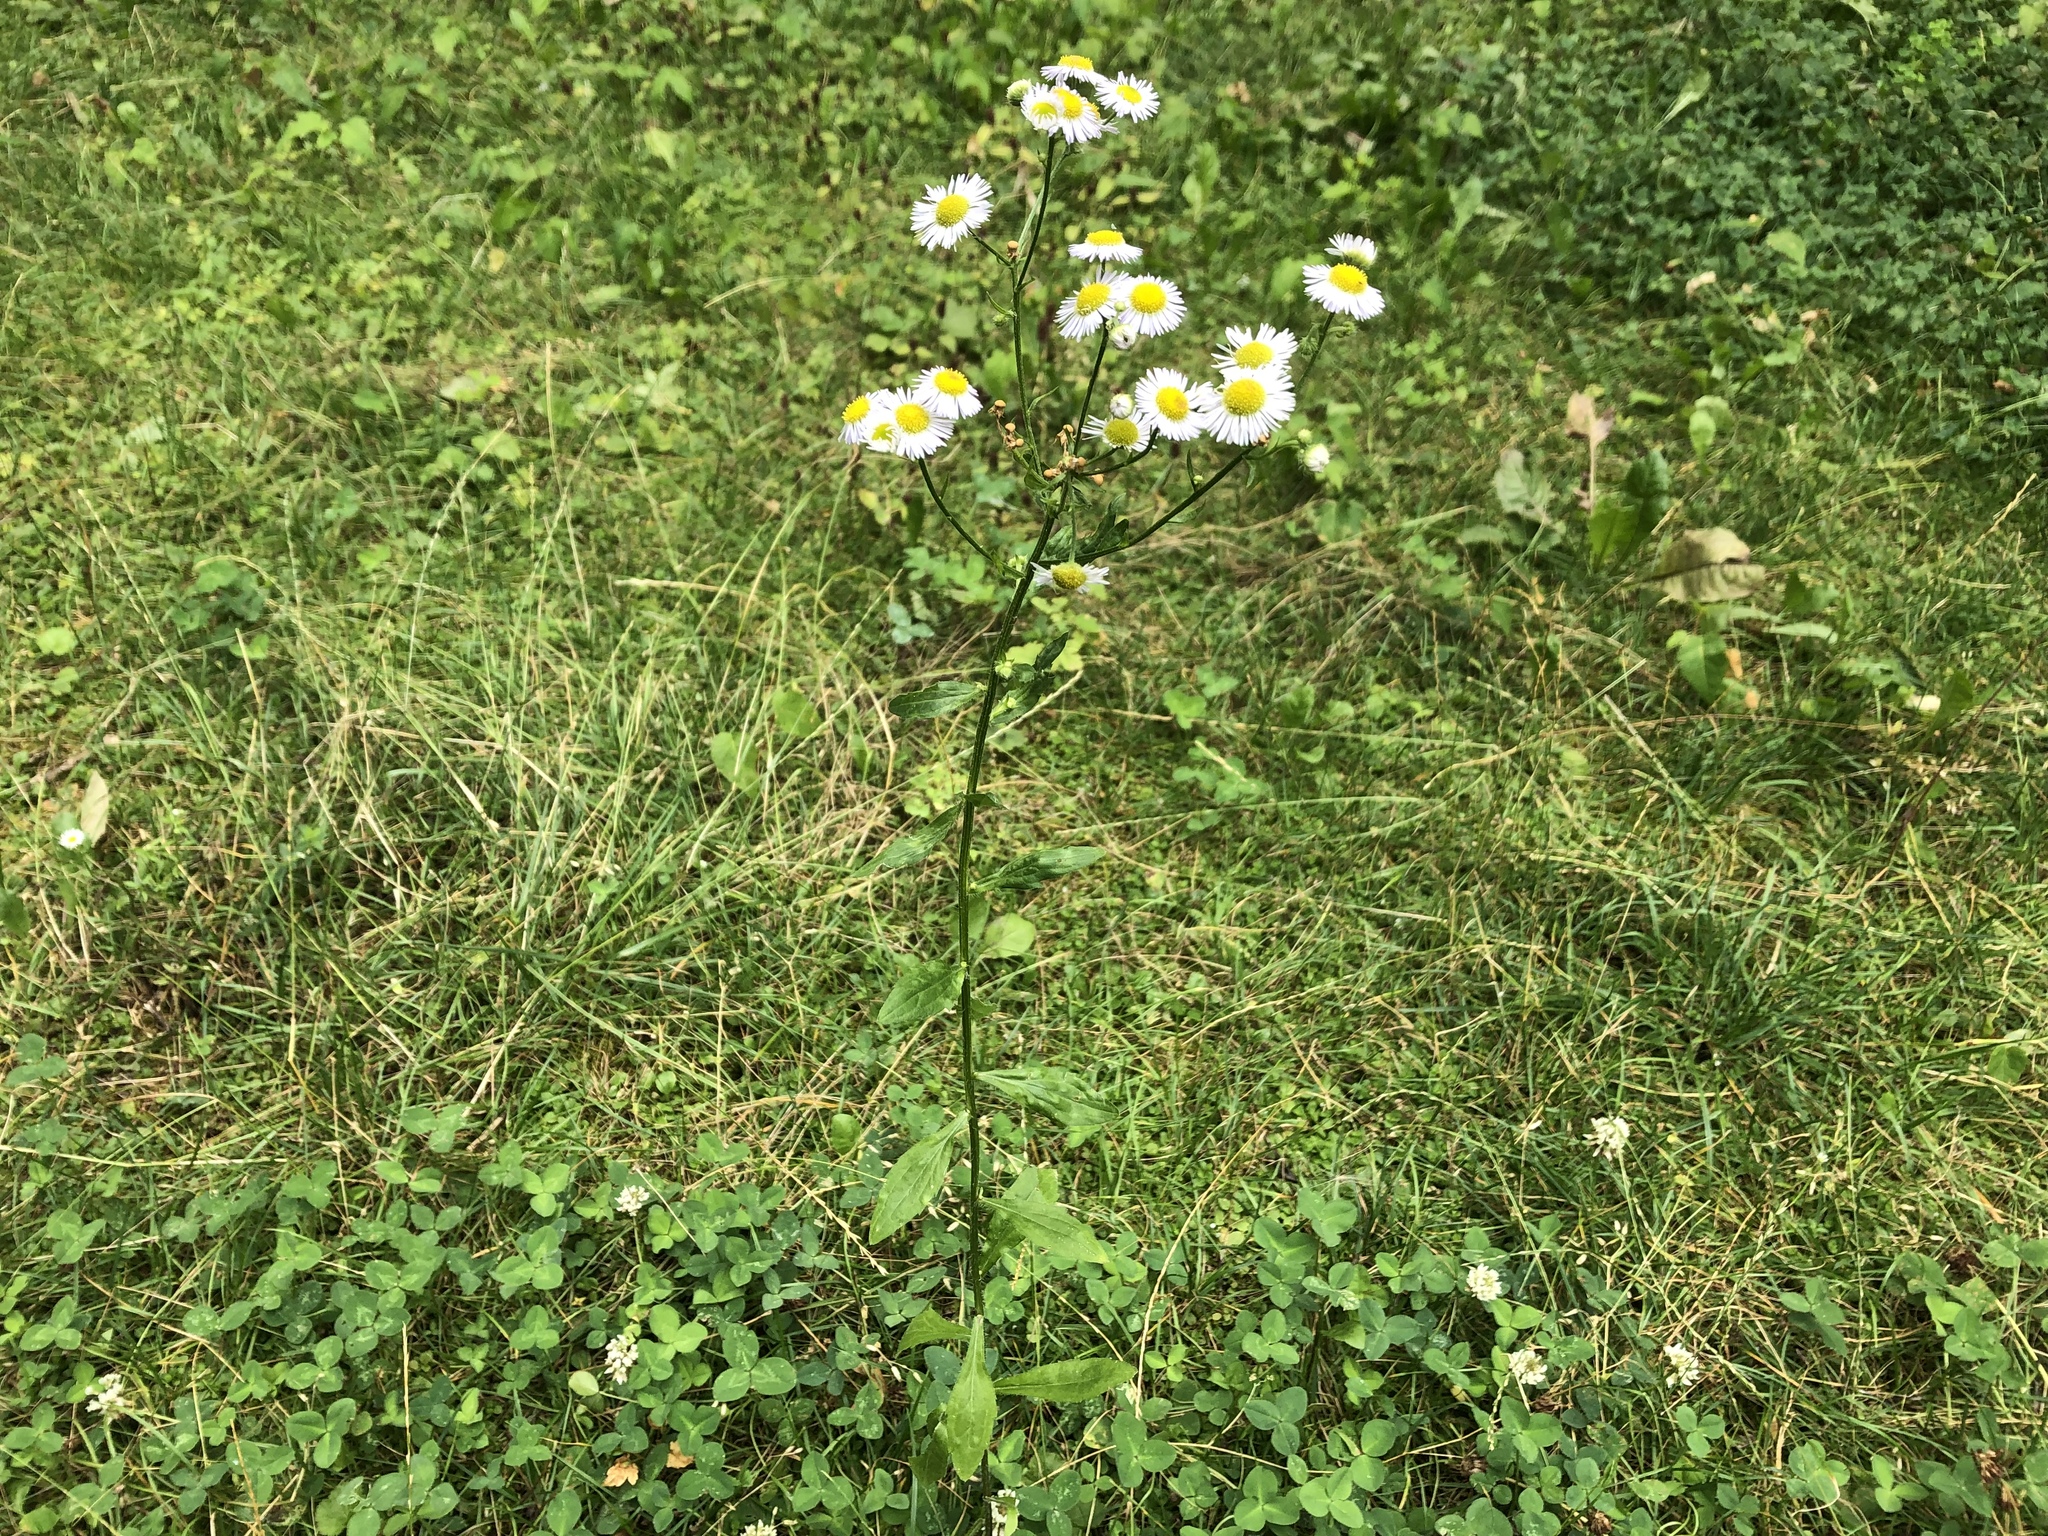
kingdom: Plantae
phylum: Tracheophyta
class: Magnoliopsida
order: Asterales
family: Asteraceae
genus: Erigeron
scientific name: Erigeron annuus
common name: Tall fleabane
